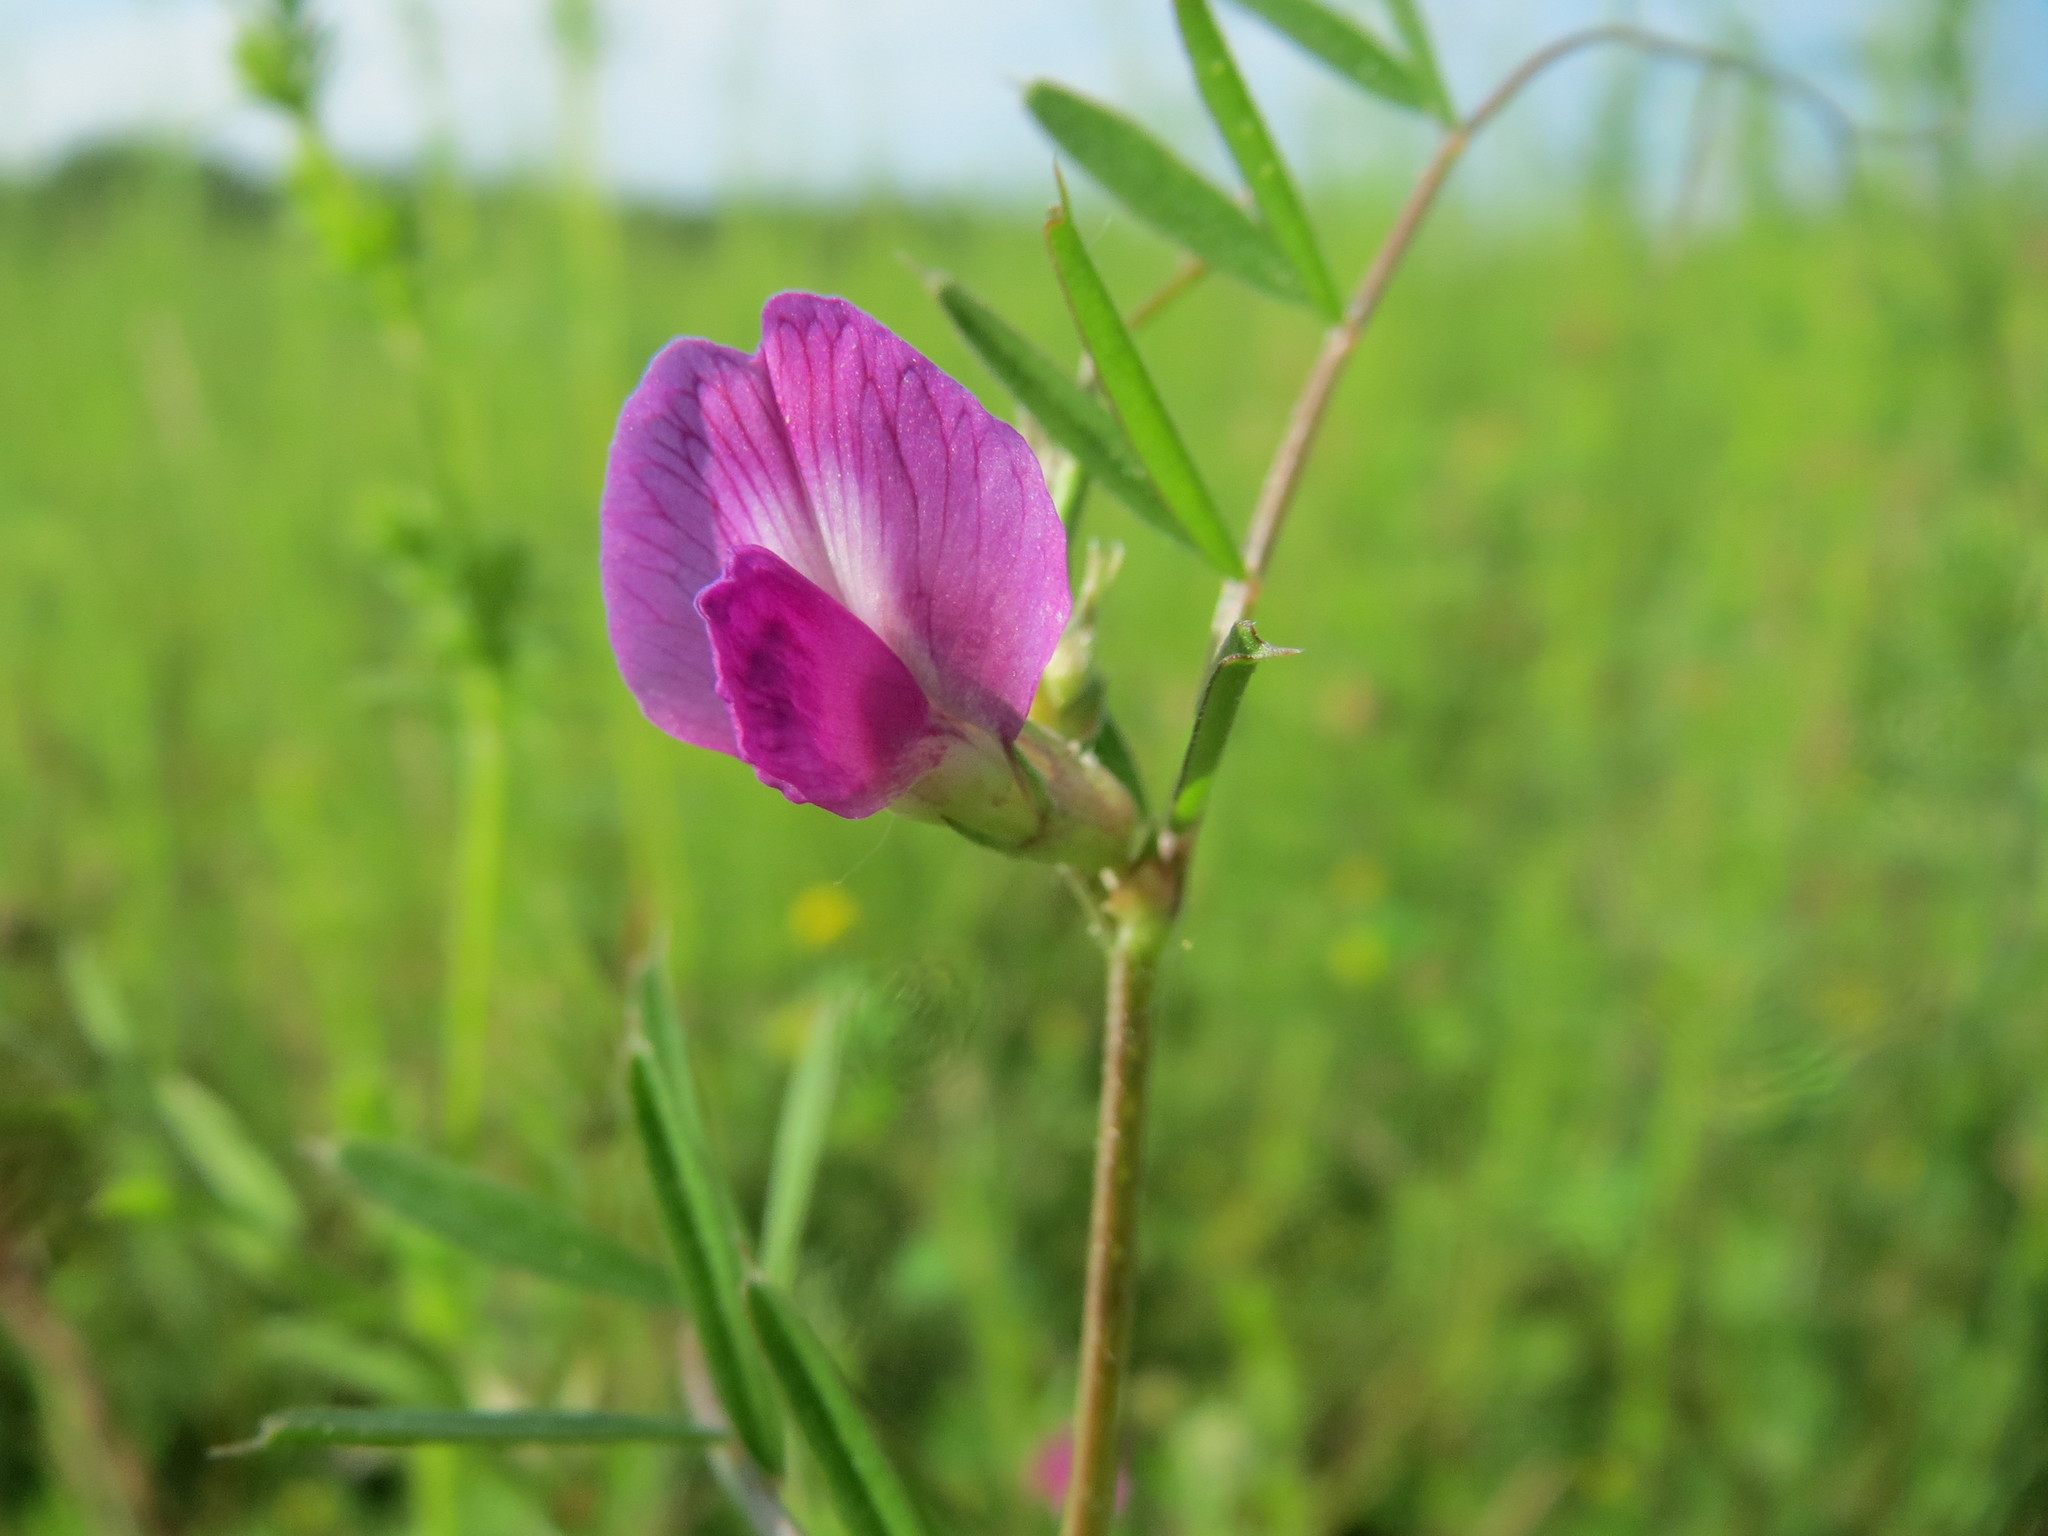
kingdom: Plantae
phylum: Tracheophyta
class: Magnoliopsida
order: Fabales
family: Fabaceae
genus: Vicia
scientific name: Vicia sativa
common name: Garden vetch
